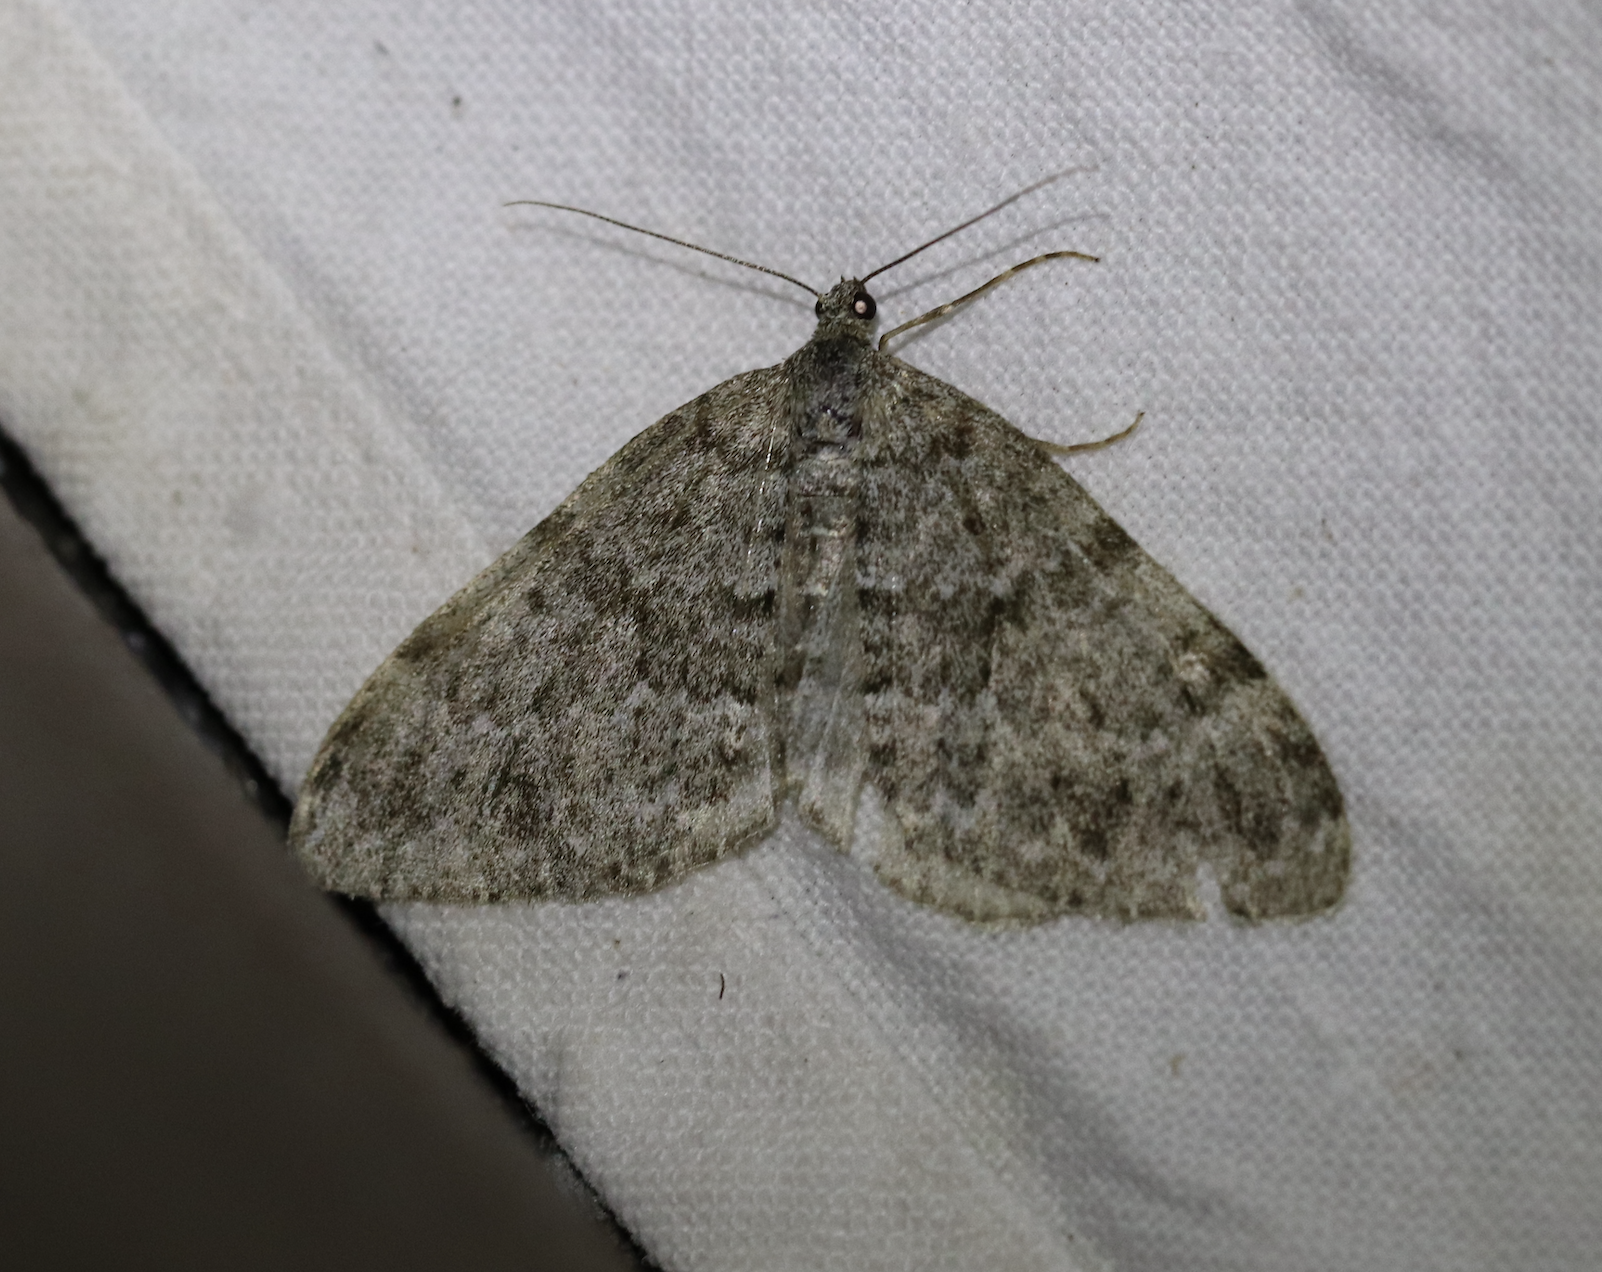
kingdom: Animalia
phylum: Arthropoda
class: Insecta
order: Lepidoptera
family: Geometridae
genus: Entephria
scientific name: Entephria caesiata
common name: Grey mountain moth
